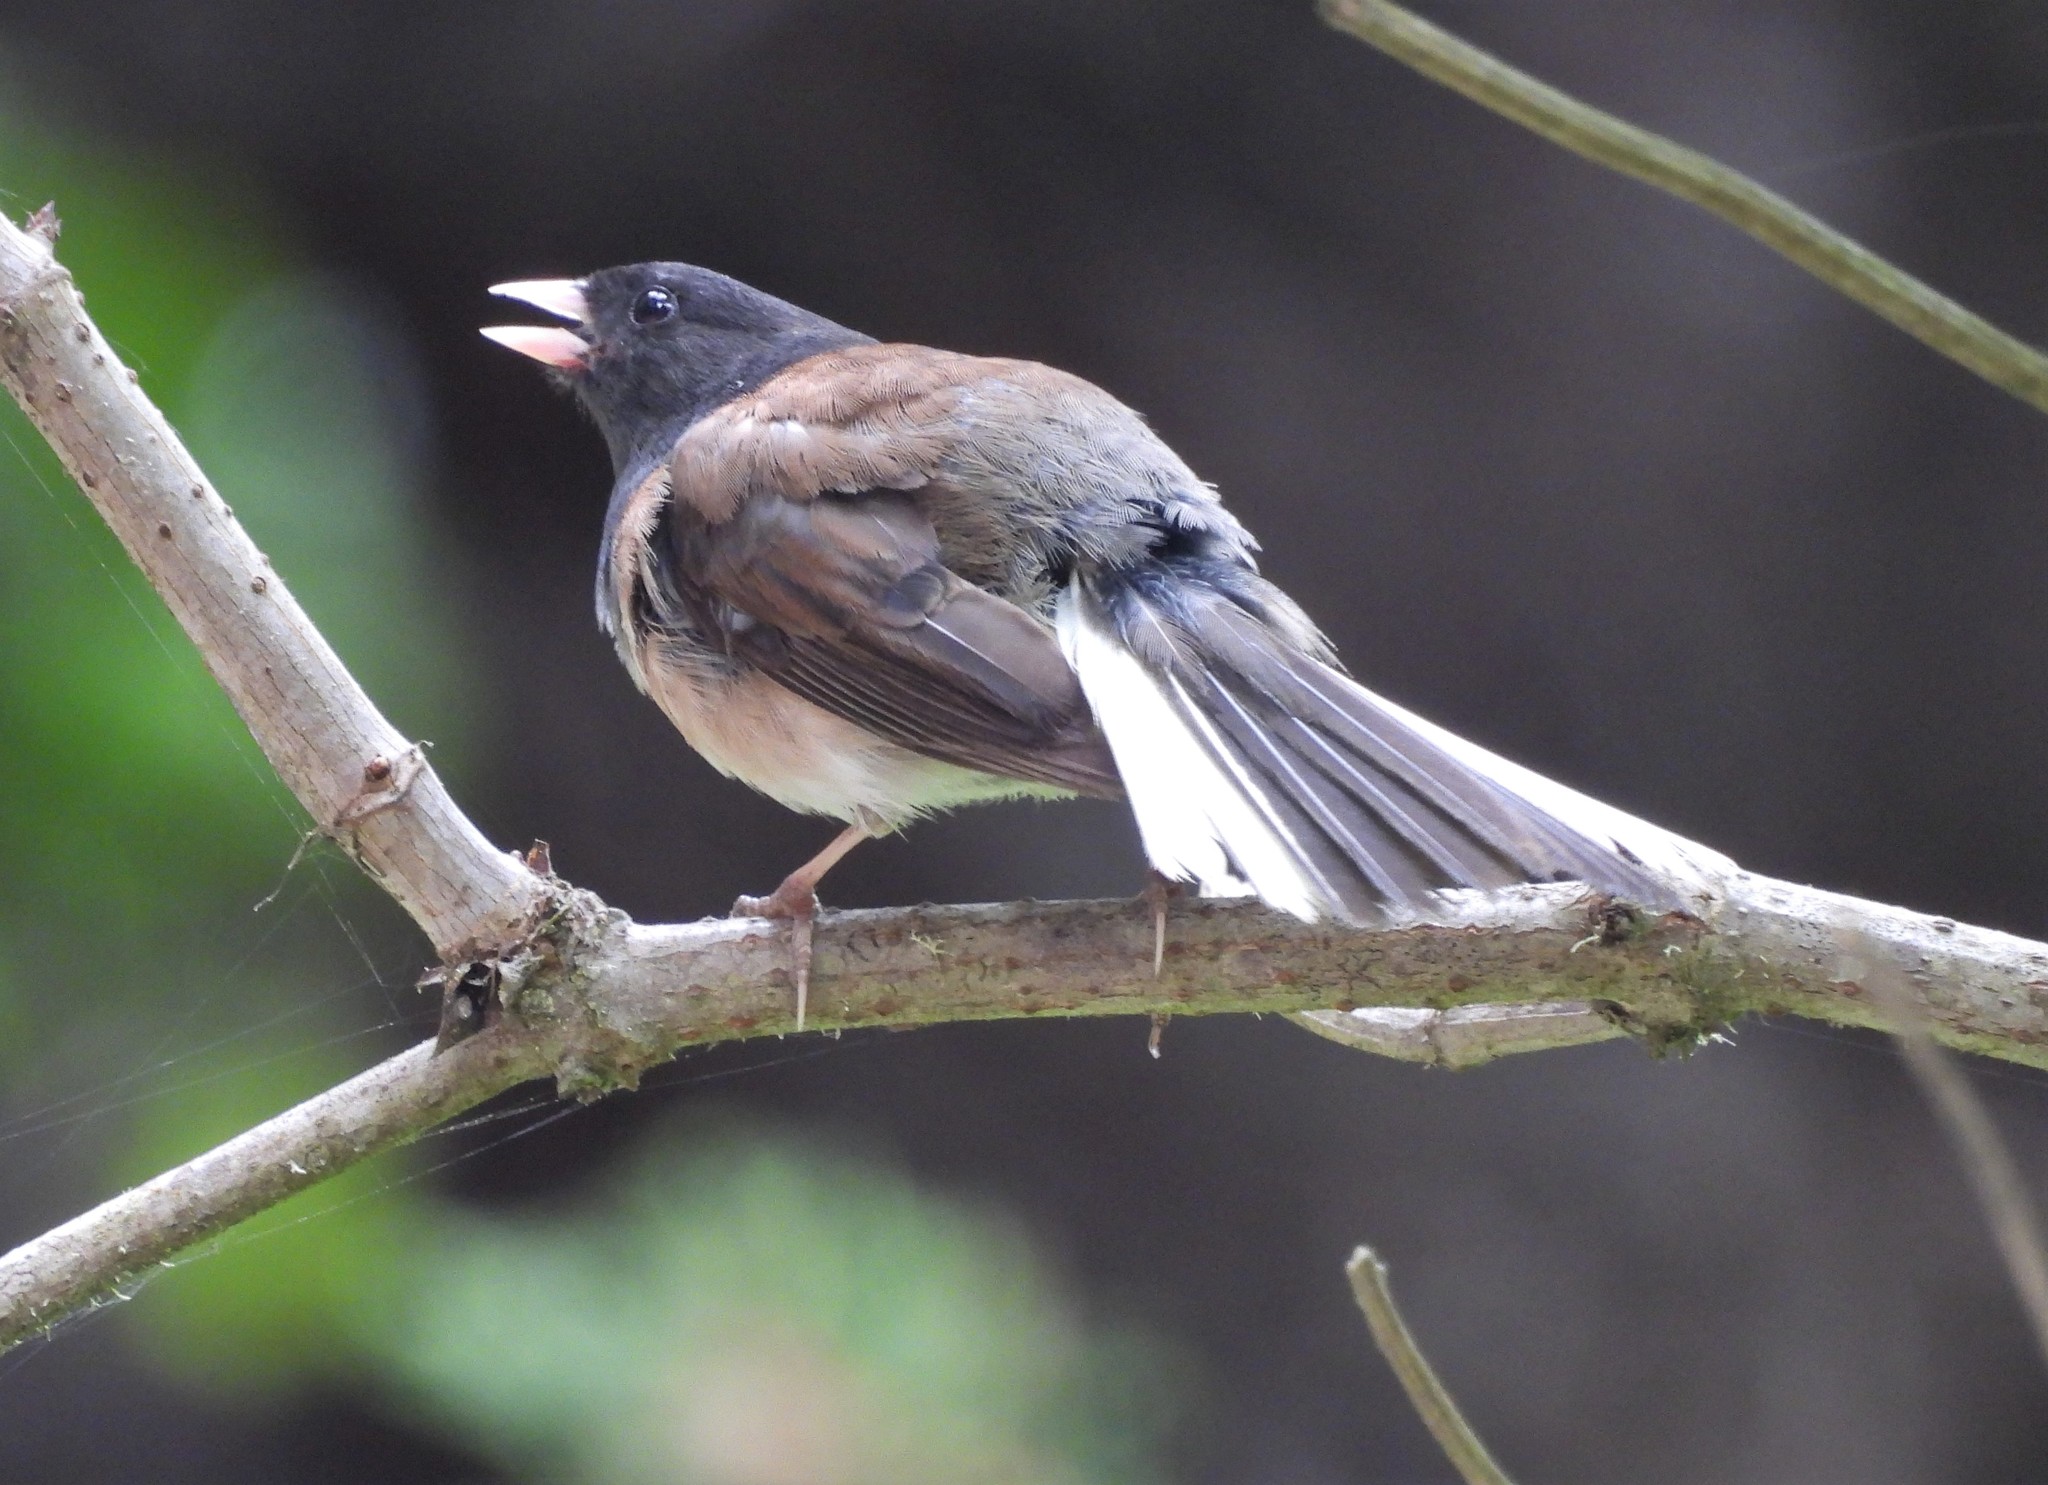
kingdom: Animalia
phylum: Chordata
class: Aves
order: Passeriformes
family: Passerellidae
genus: Junco
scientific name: Junco hyemalis
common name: Dark-eyed junco
